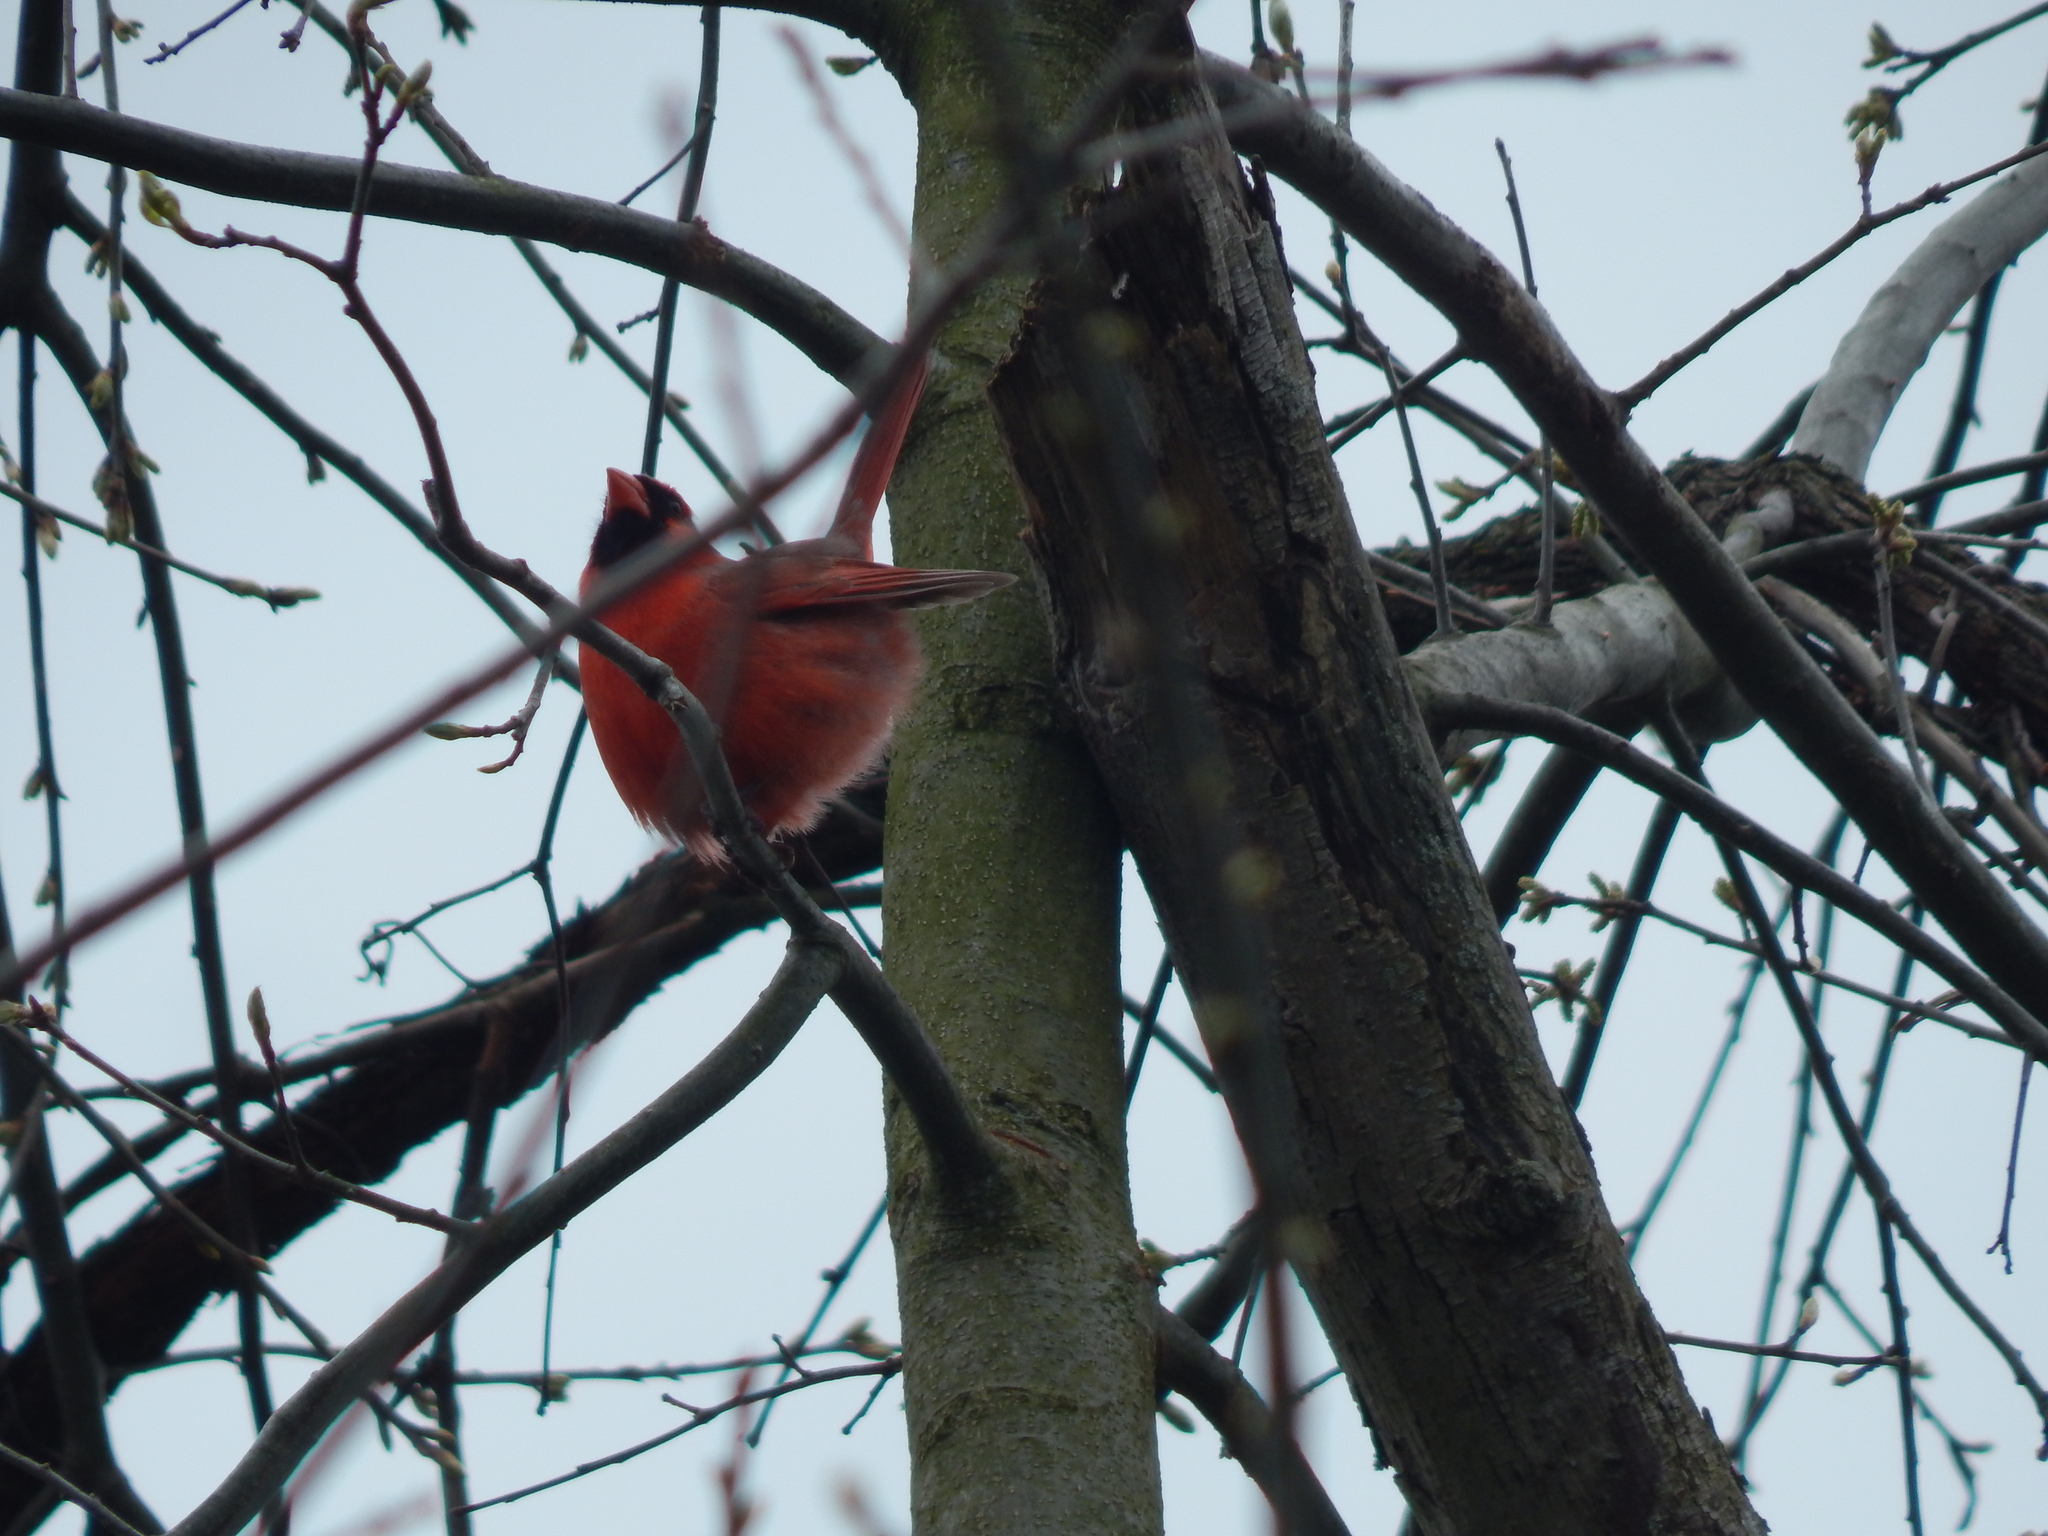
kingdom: Animalia
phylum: Chordata
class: Aves
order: Passeriformes
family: Cardinalidae
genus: Cardinalis
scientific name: Cardinalis cardinalis
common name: Northern cardinal
